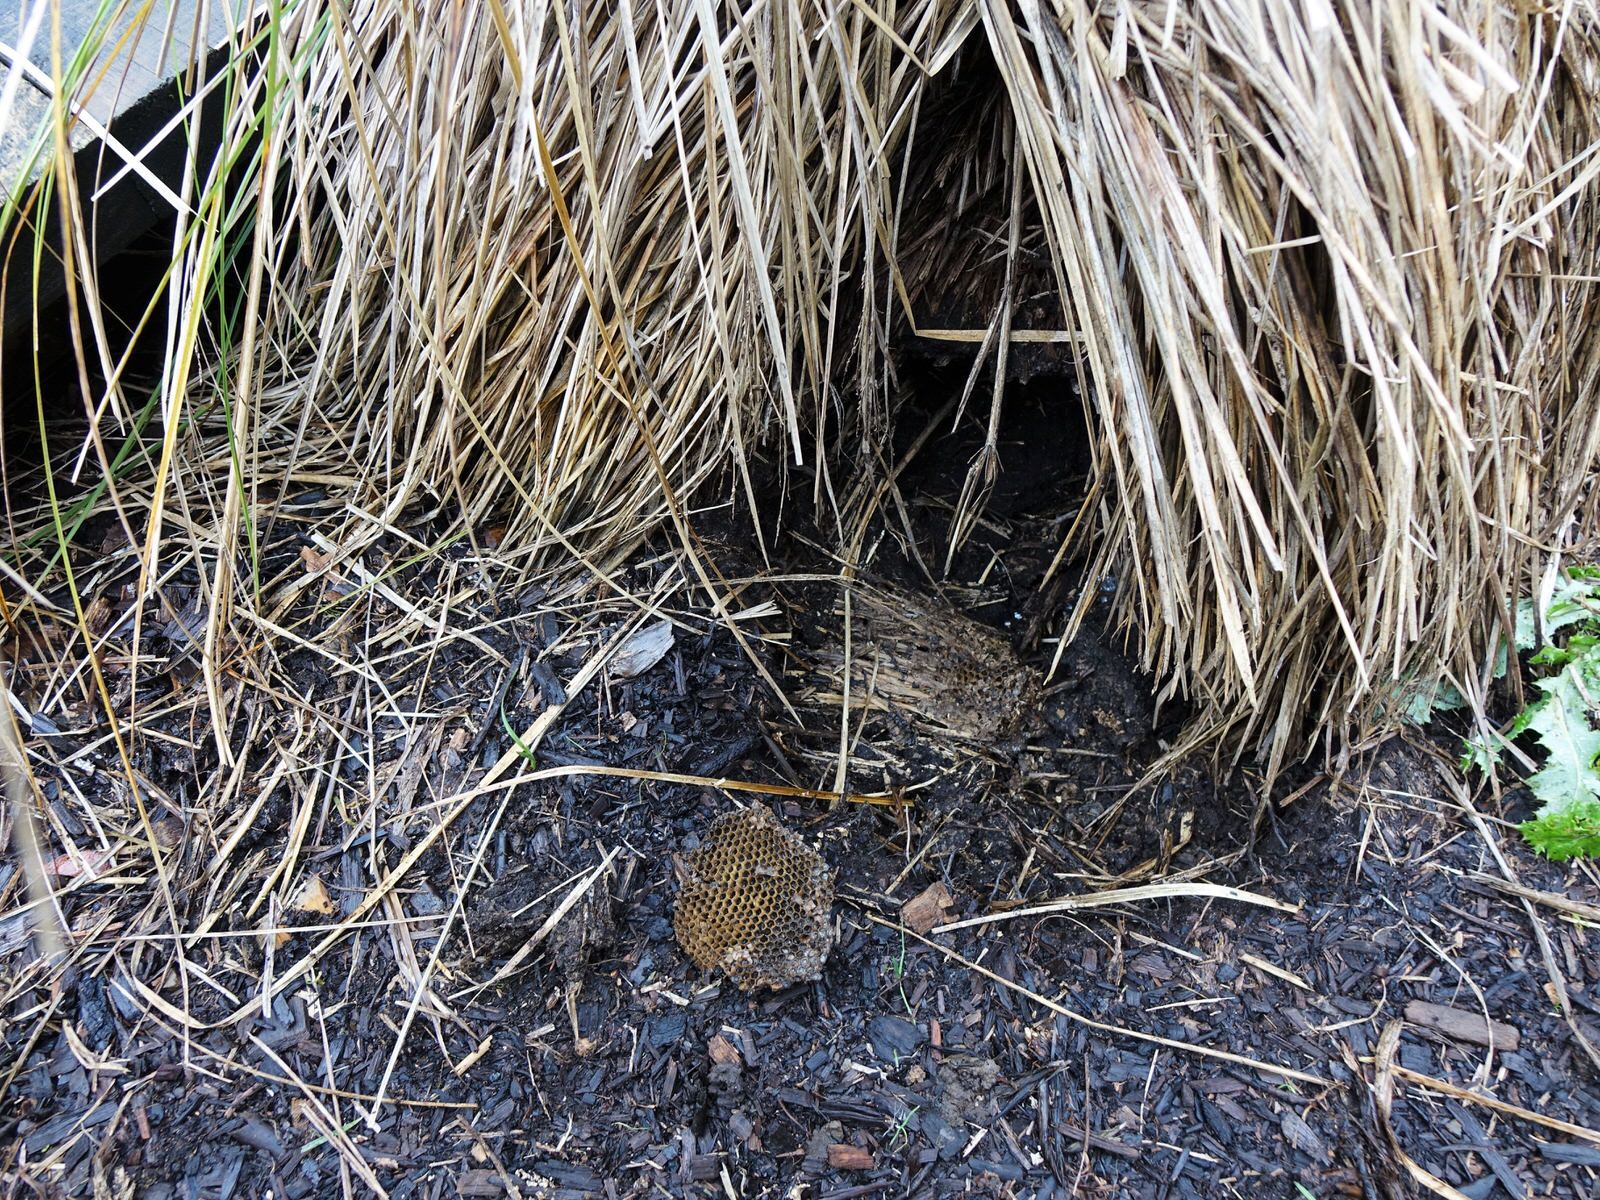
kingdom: Animalia
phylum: Arthropoda
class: Insecta
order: Hymenoptera
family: Vespidae
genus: Vespula
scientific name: Vespula
